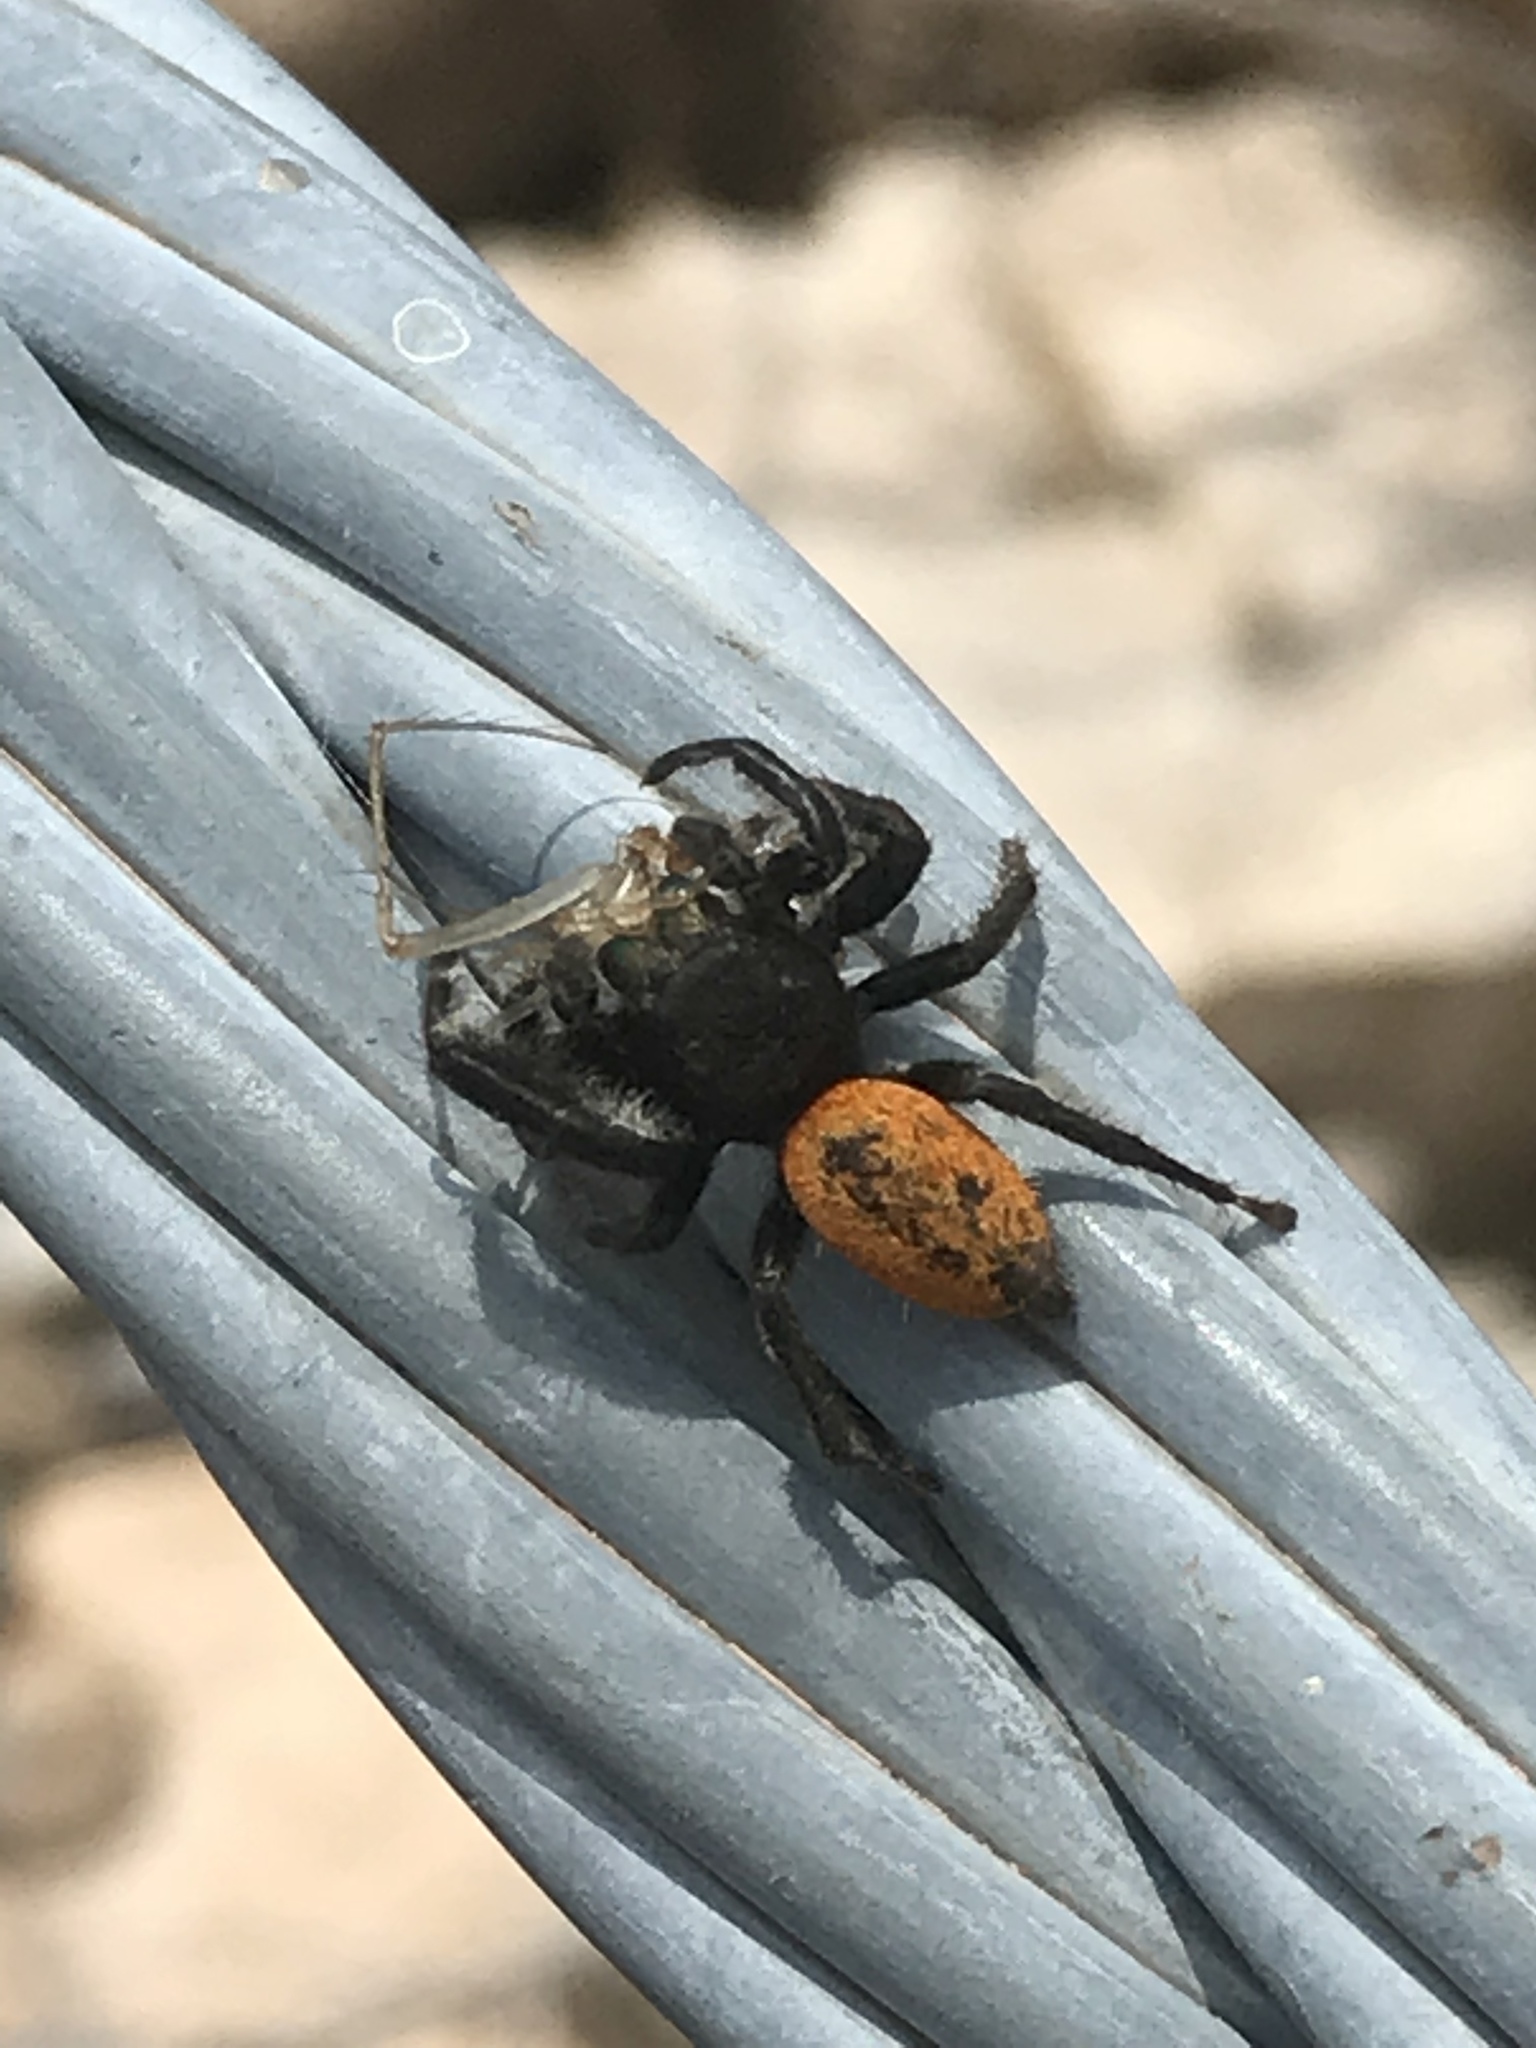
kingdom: Animalia
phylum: Arthropoda
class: Arachnida
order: Araneae
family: Salticidae
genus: Phidippus
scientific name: Phidippus texanus
